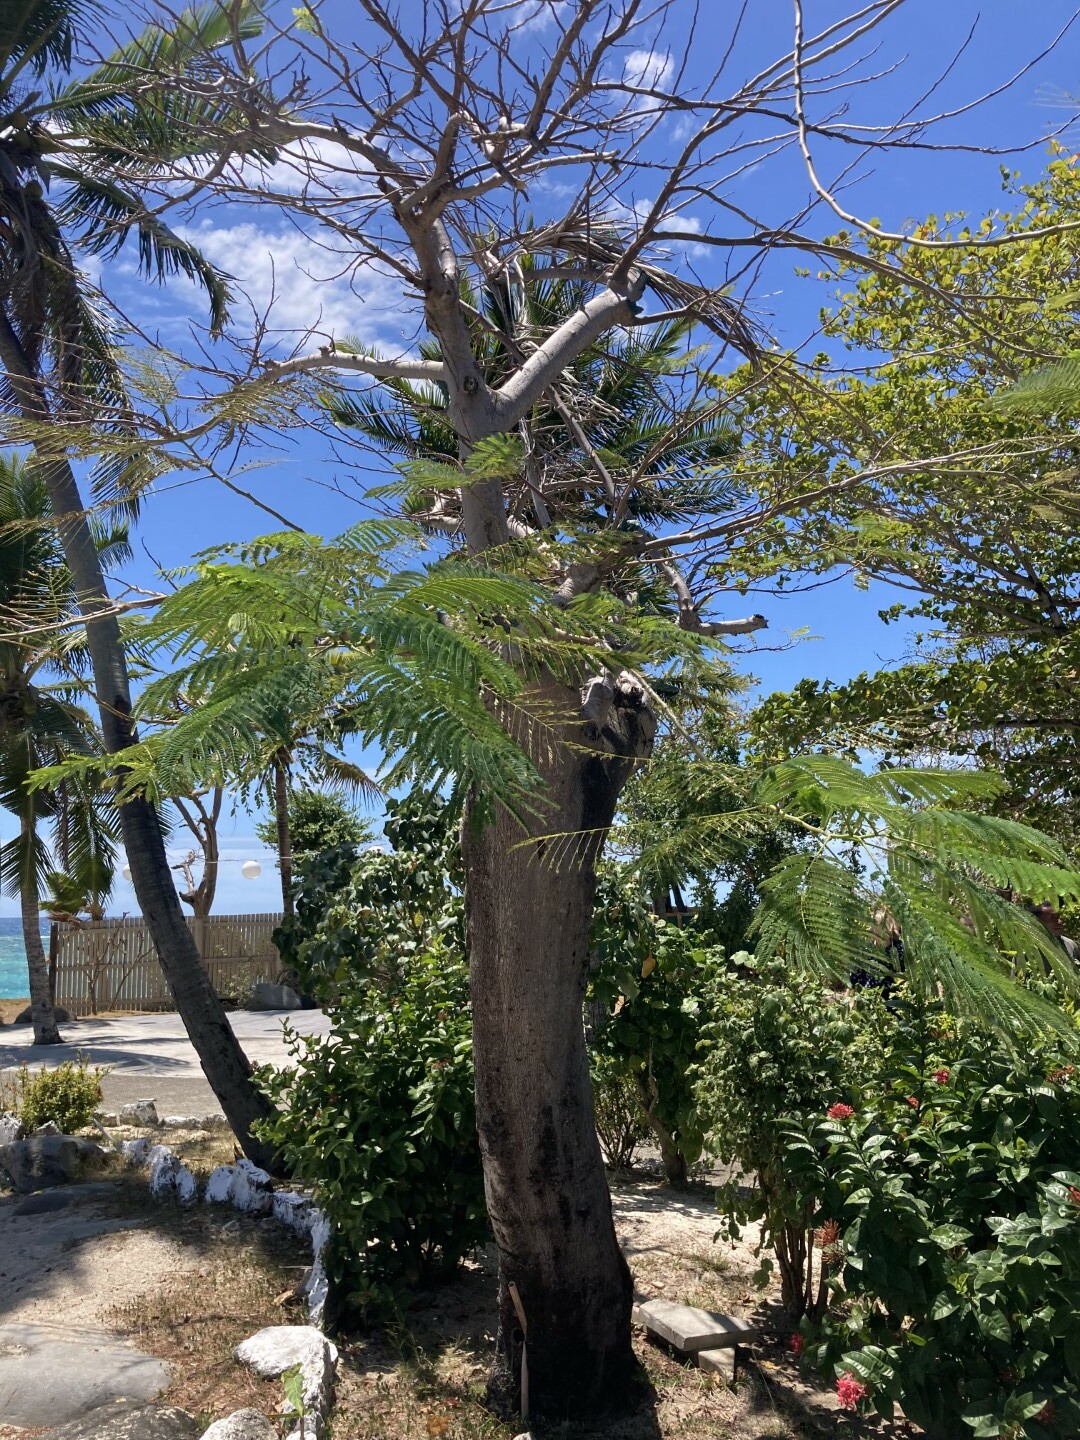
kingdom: Plantae
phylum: Tracheophyta
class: Magnoliopsida
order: Fabales
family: Fabaceae
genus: Delonix
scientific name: Delonix regia
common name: Royal poinciana
